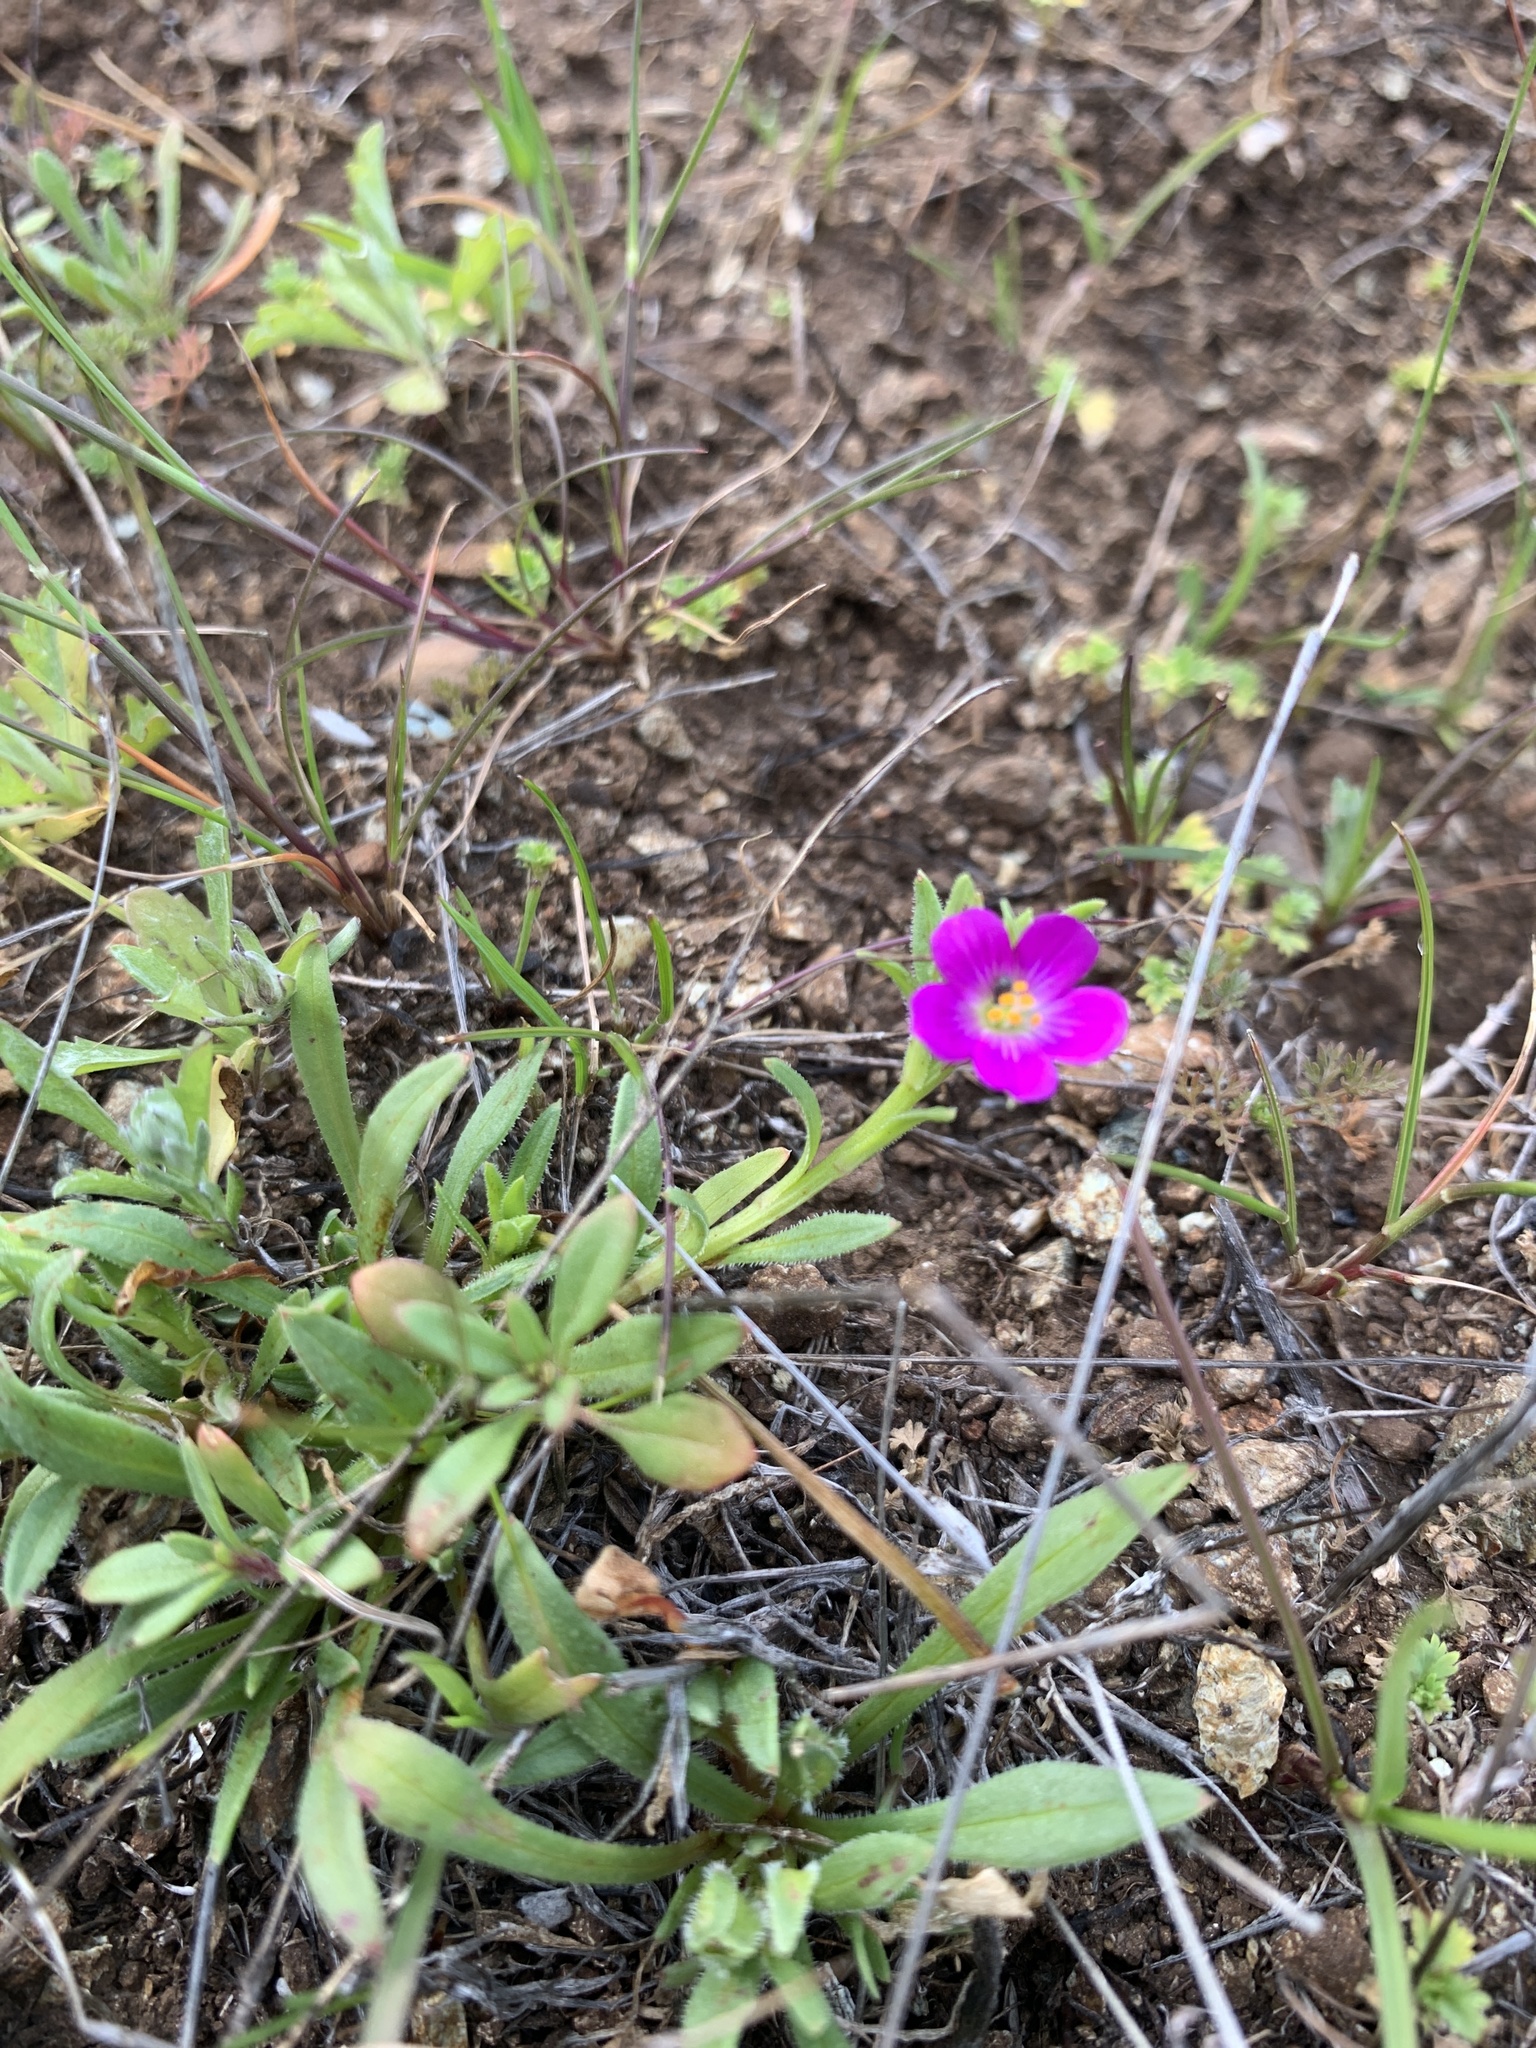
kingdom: Plantae
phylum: Tracheophyta
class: Magnoliopsida
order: Caryophyllales
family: Montiaceae
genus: Calandrinia
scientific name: Calandrinia menziesii
